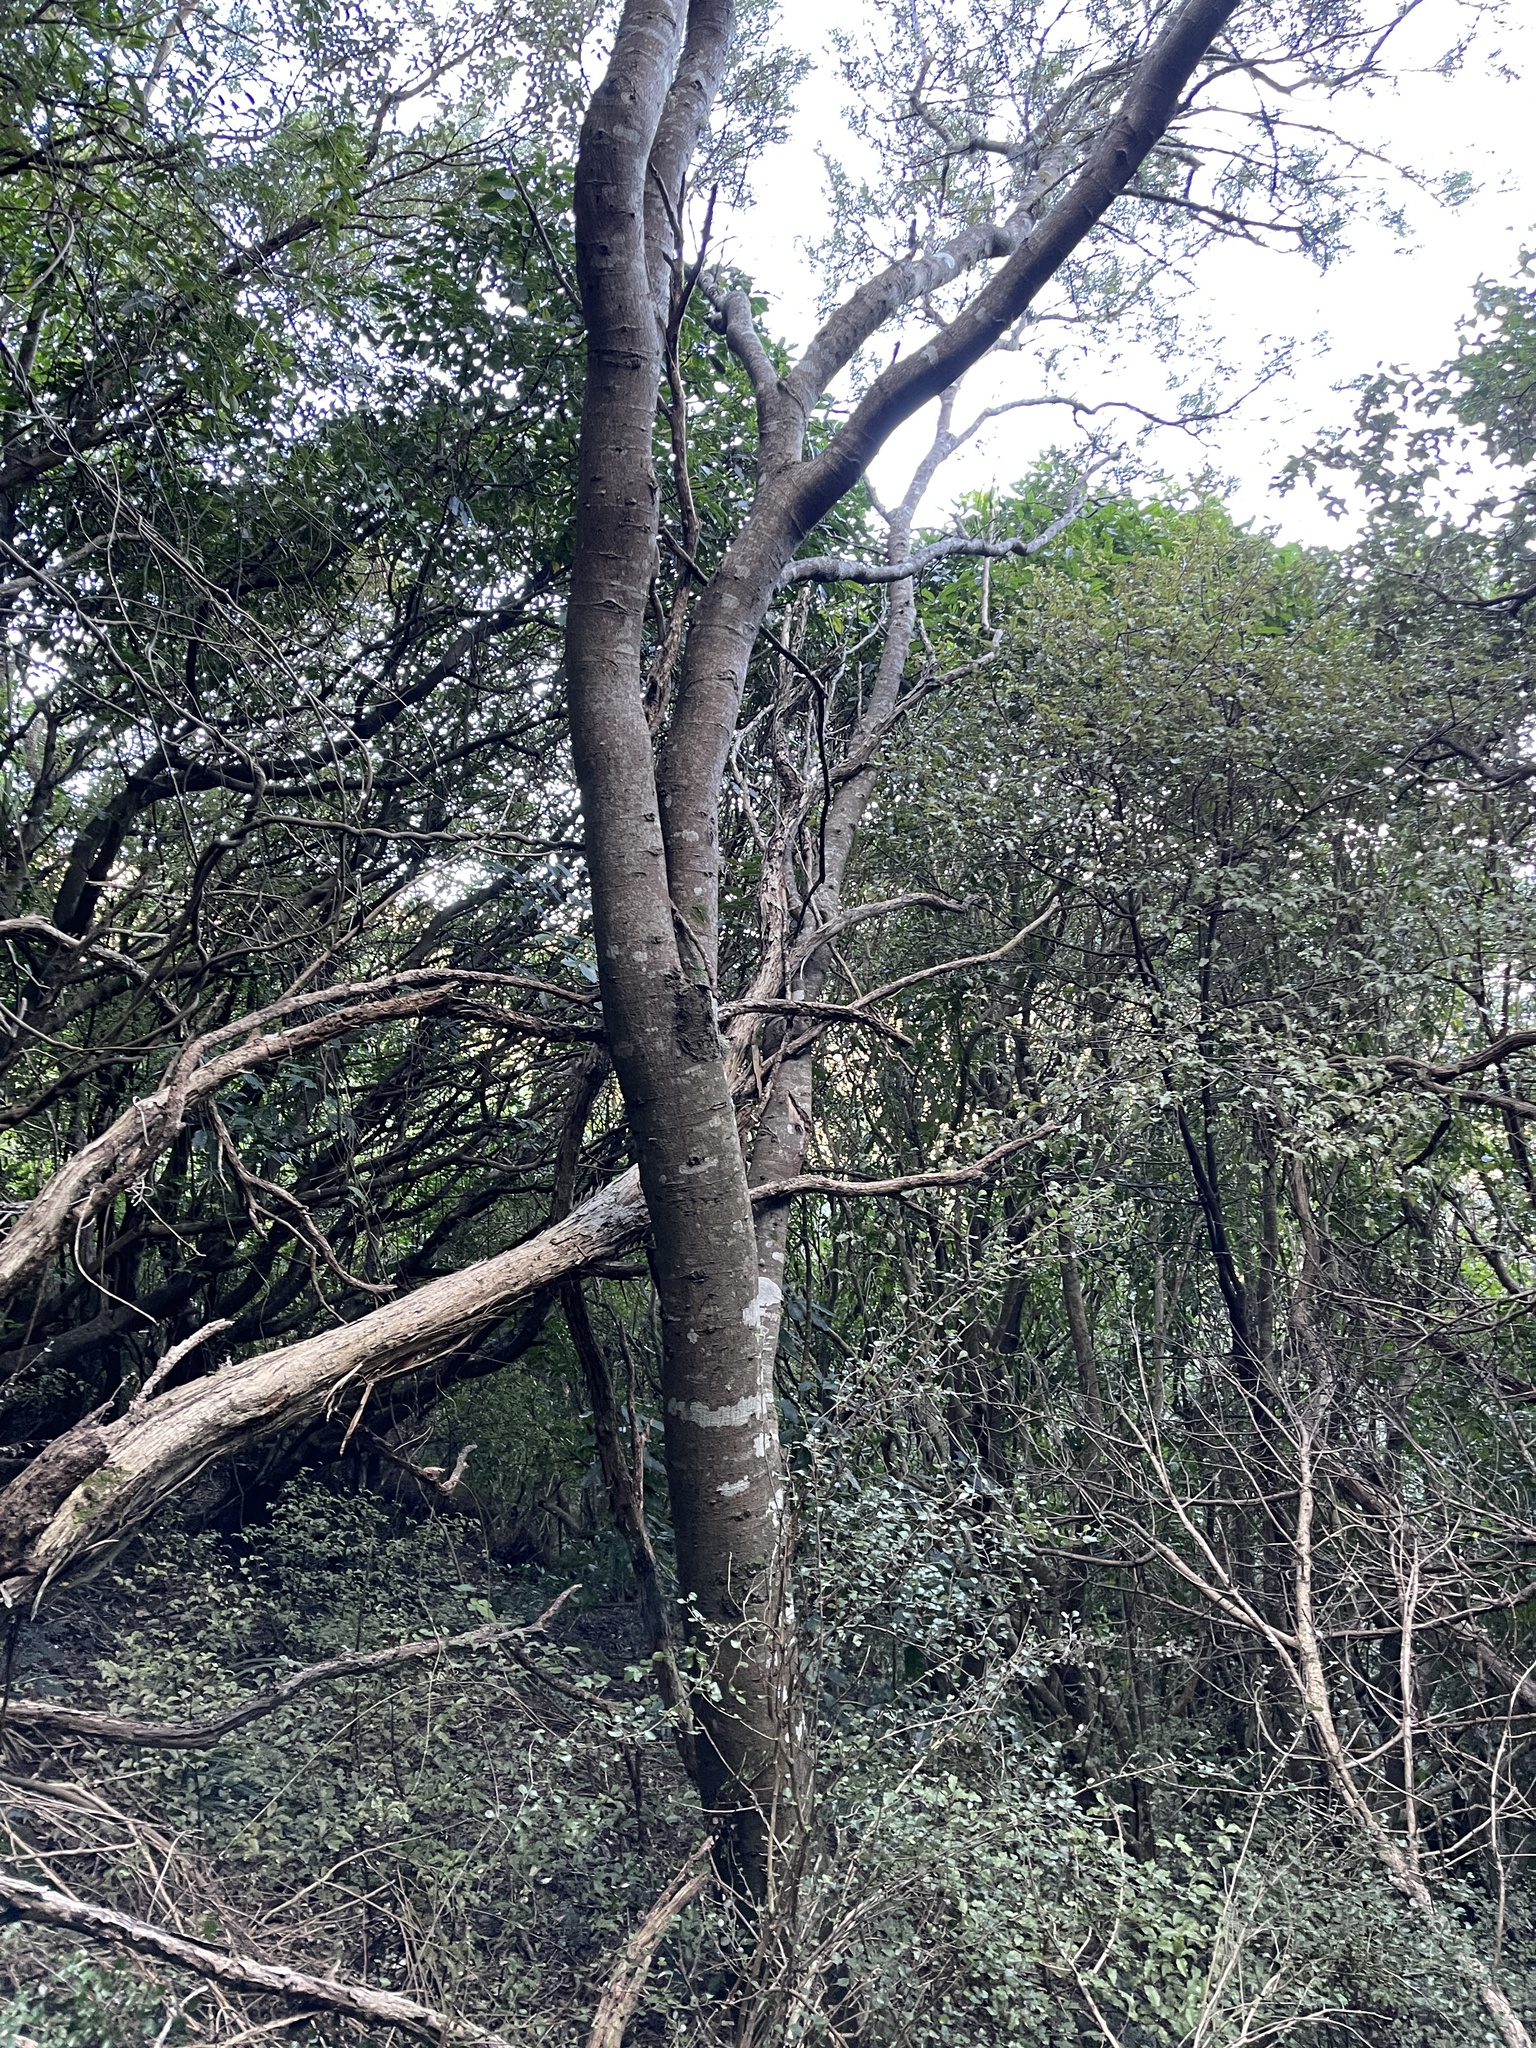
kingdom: Plantae
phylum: Tracheophyta
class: Magnoliopsida
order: Fabales
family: Fabaceae
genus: Sophora
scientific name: Sophora microphylla
